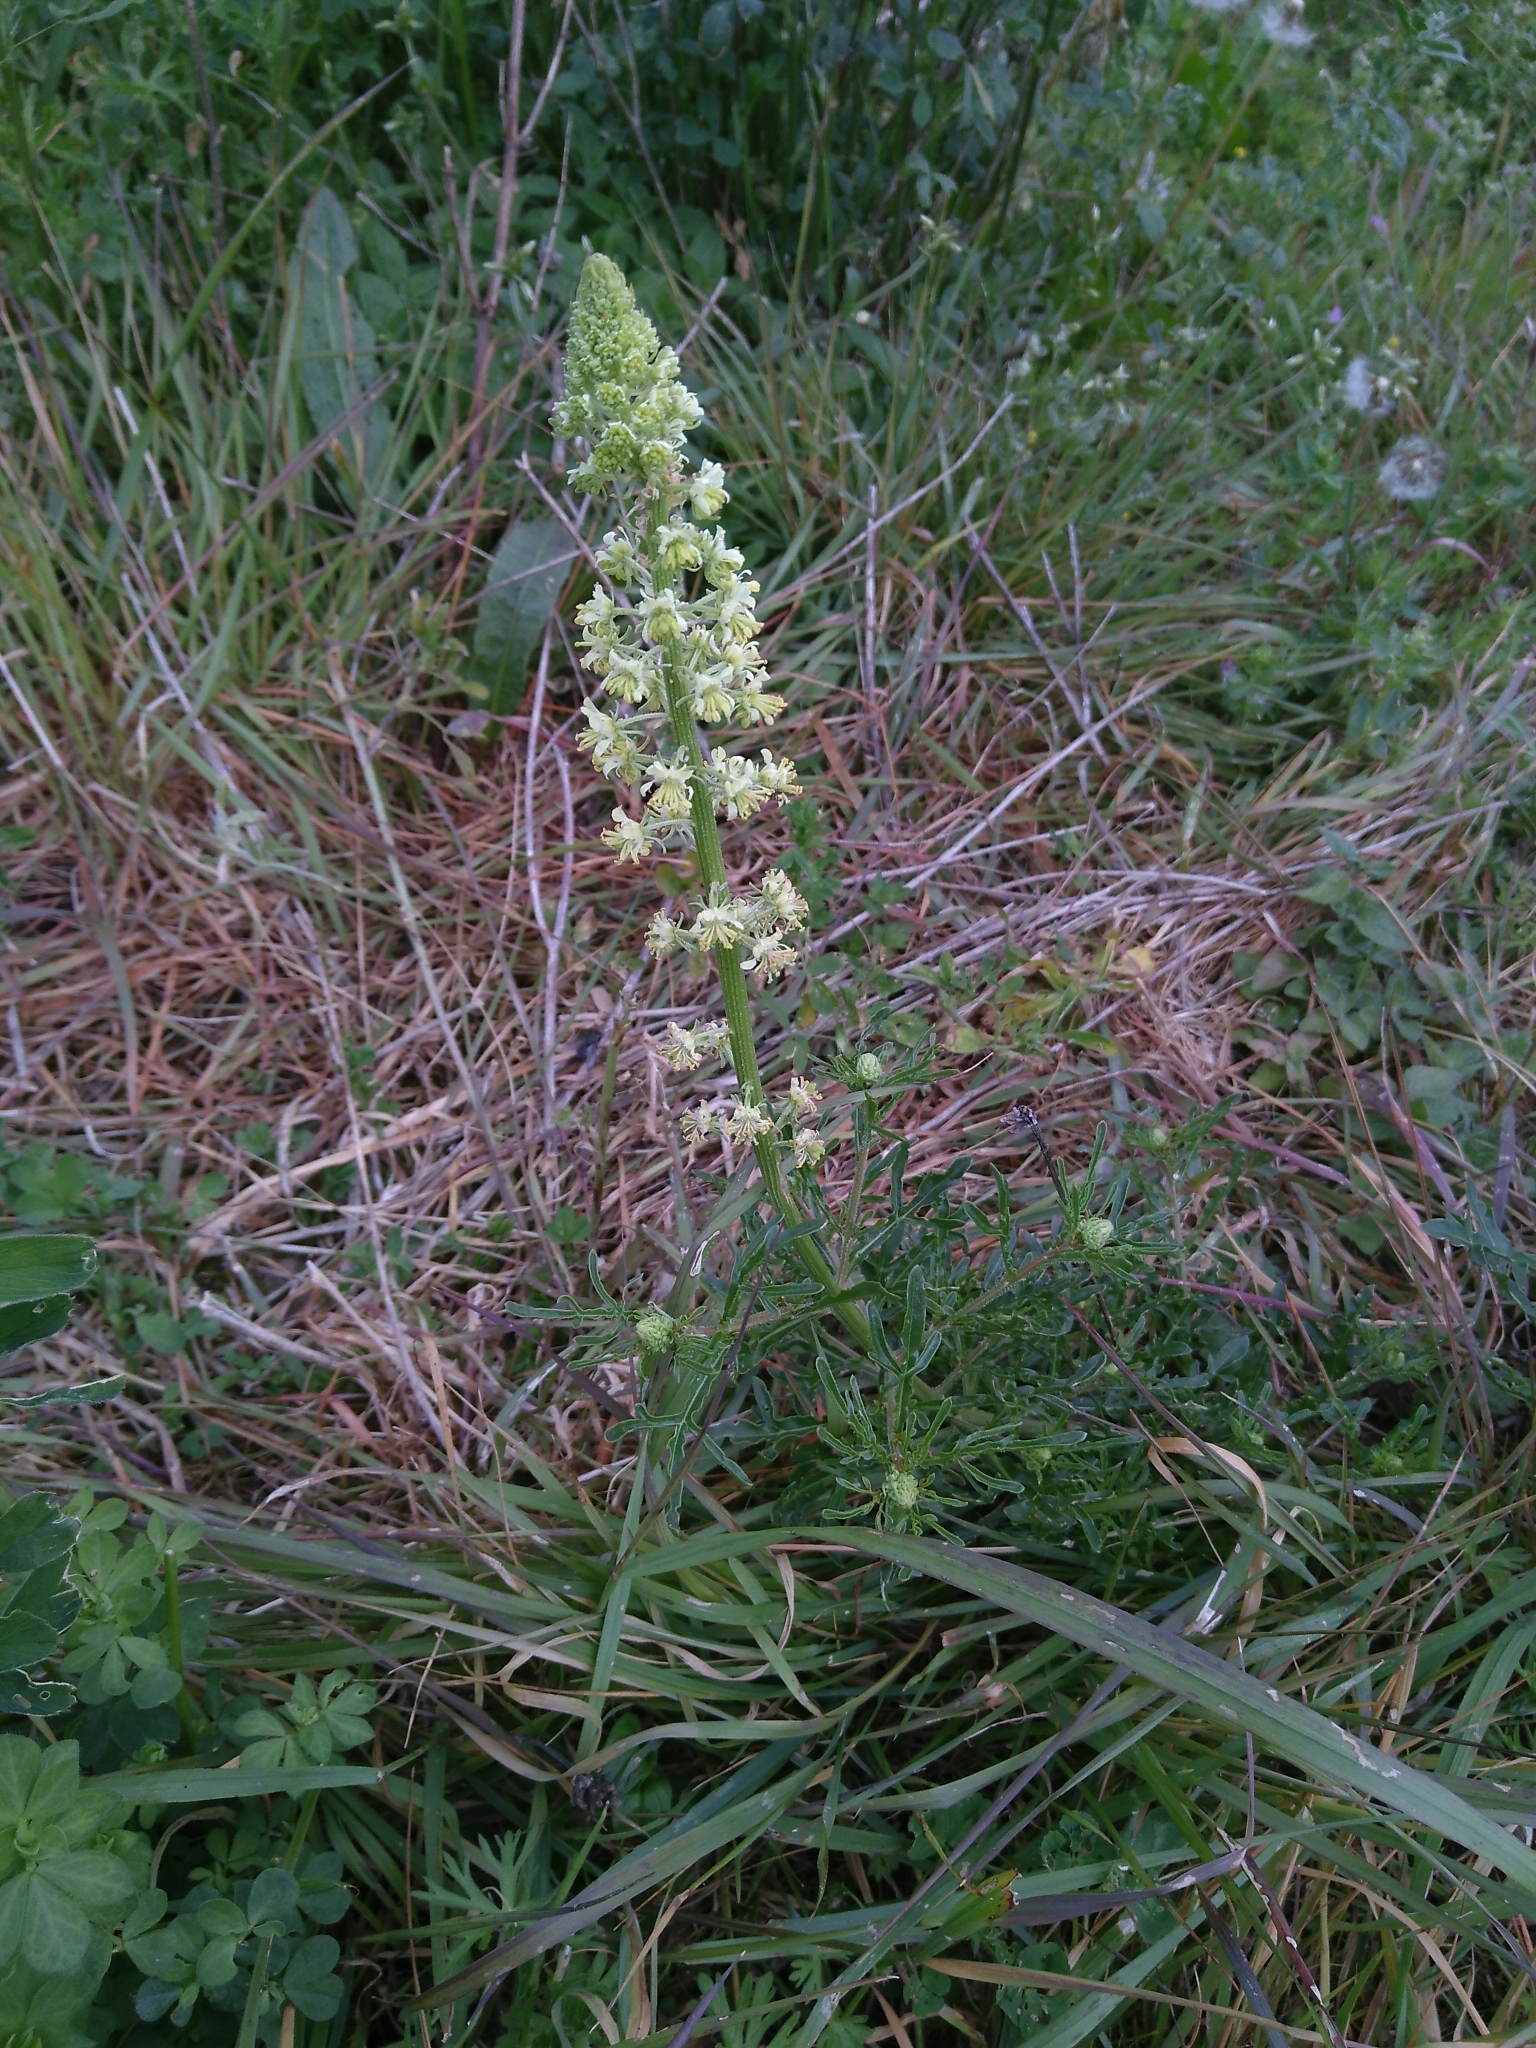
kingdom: Plantae
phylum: Tracheophyta
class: Magnoliopsida
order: Brassicales
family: Resedaceae
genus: Reseda
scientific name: Reseda lutea
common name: Wild mignonette
